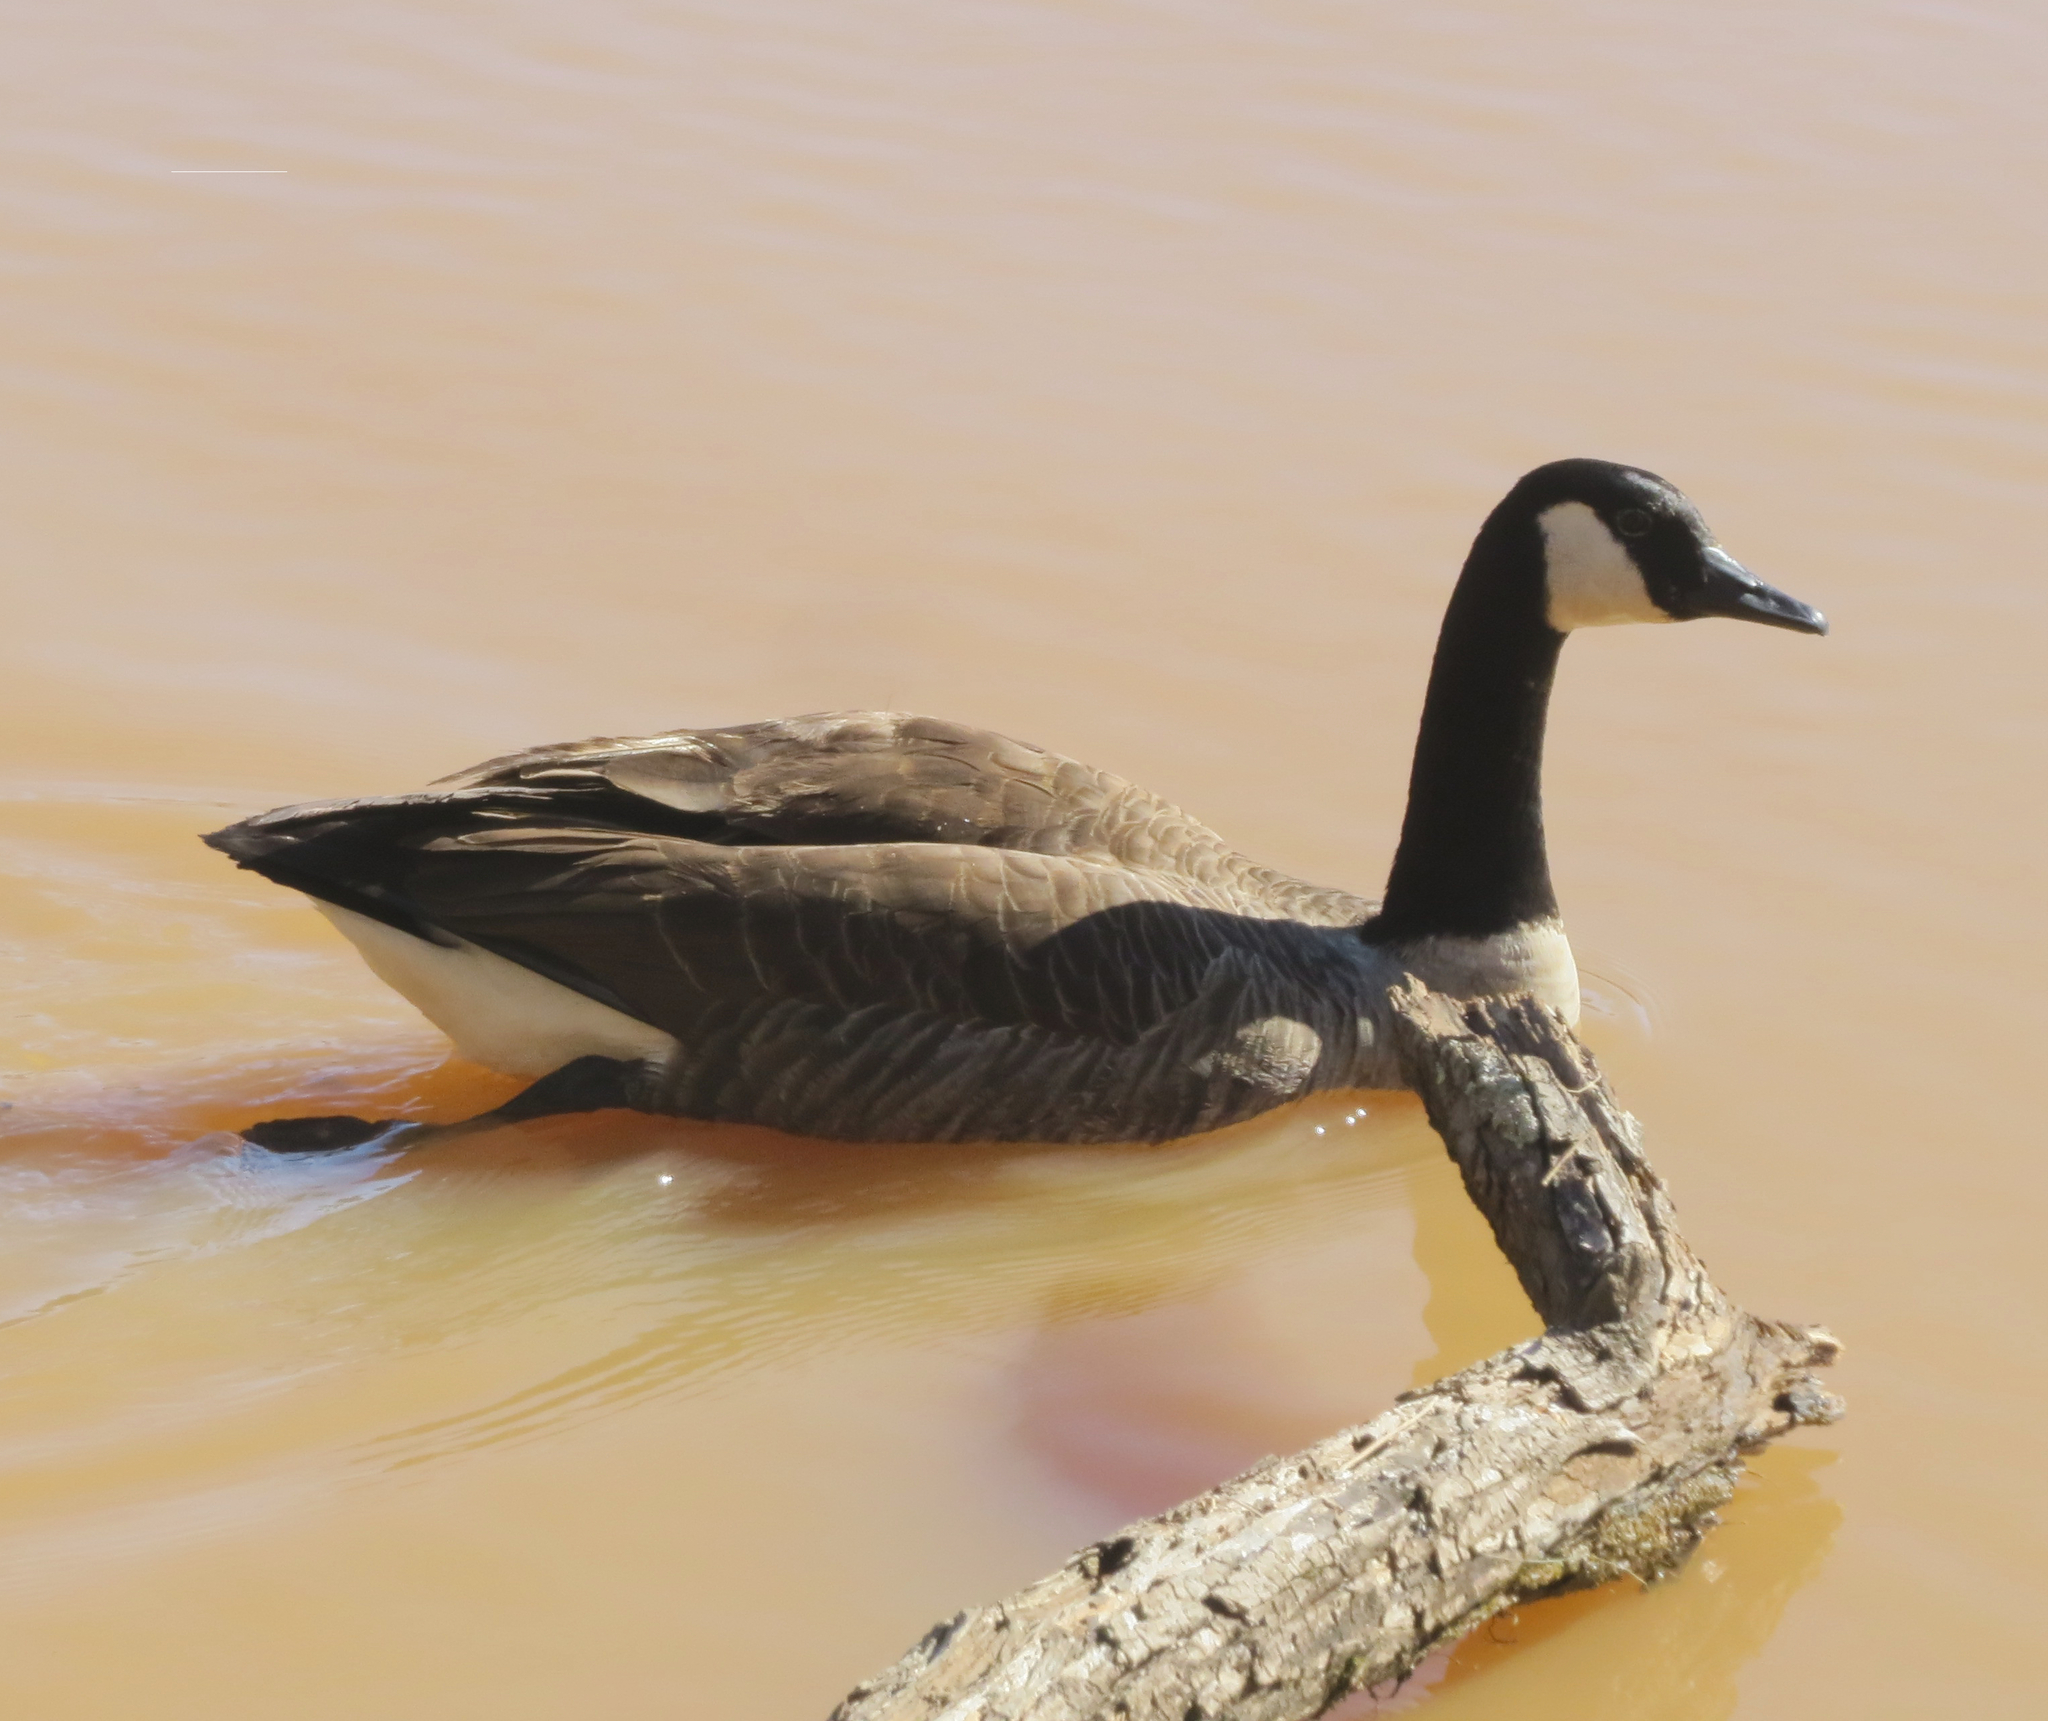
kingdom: Animalia
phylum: Chordata
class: Aves
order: Anseriformes
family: Anatidae
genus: Branta
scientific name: Branta canadensis
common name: Canada goose
